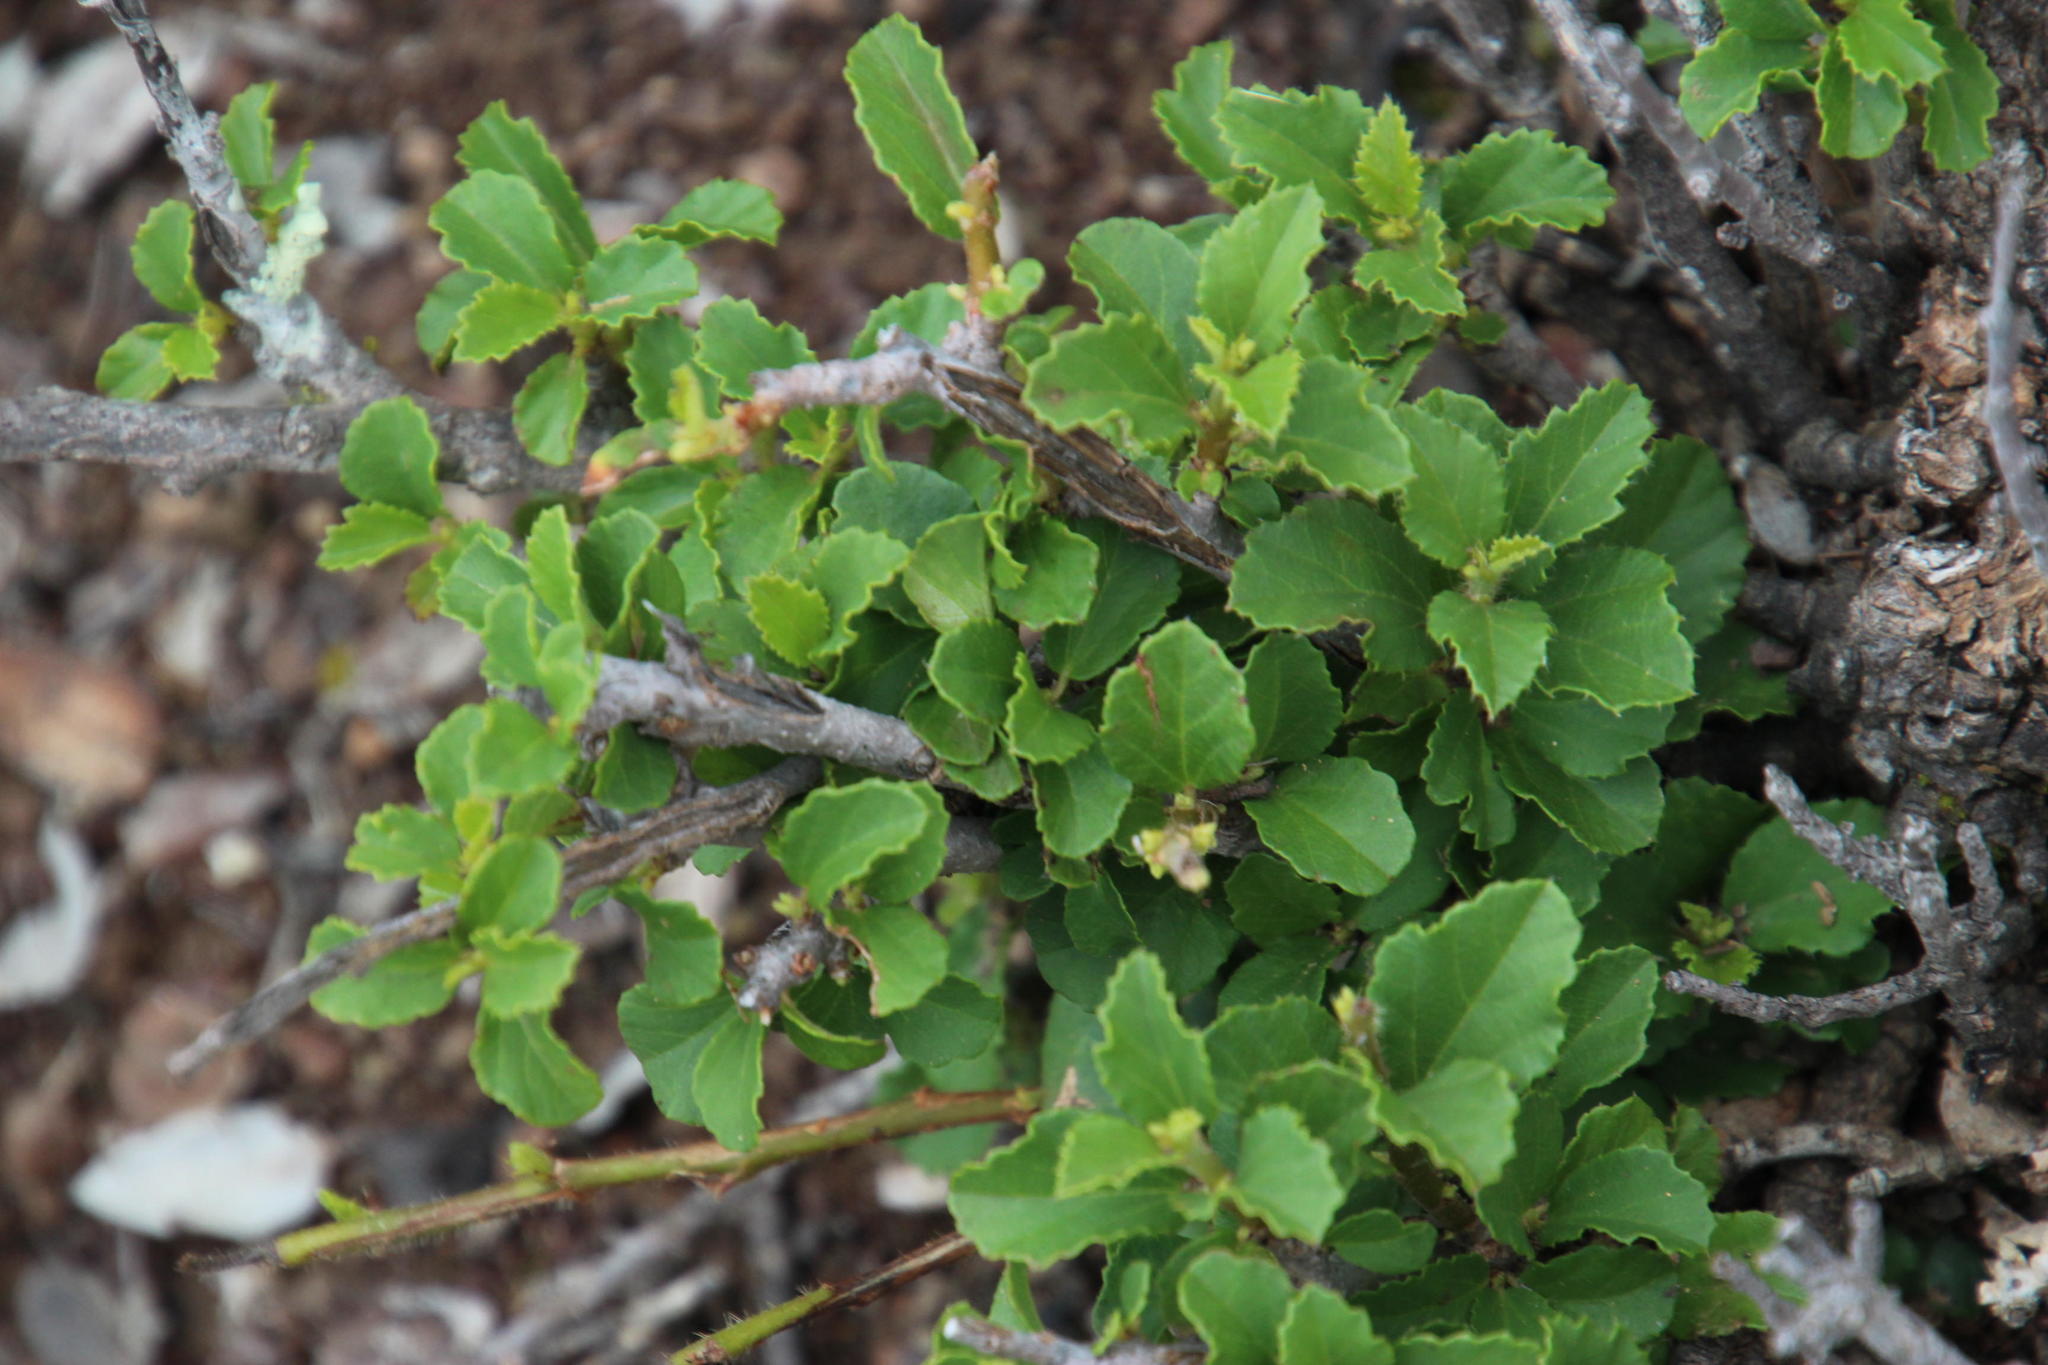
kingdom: Plantae
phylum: Tracheophyta
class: Magnoliopsida
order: Malvales
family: Malvaceae
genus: Grewia
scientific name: Grewia robusta
